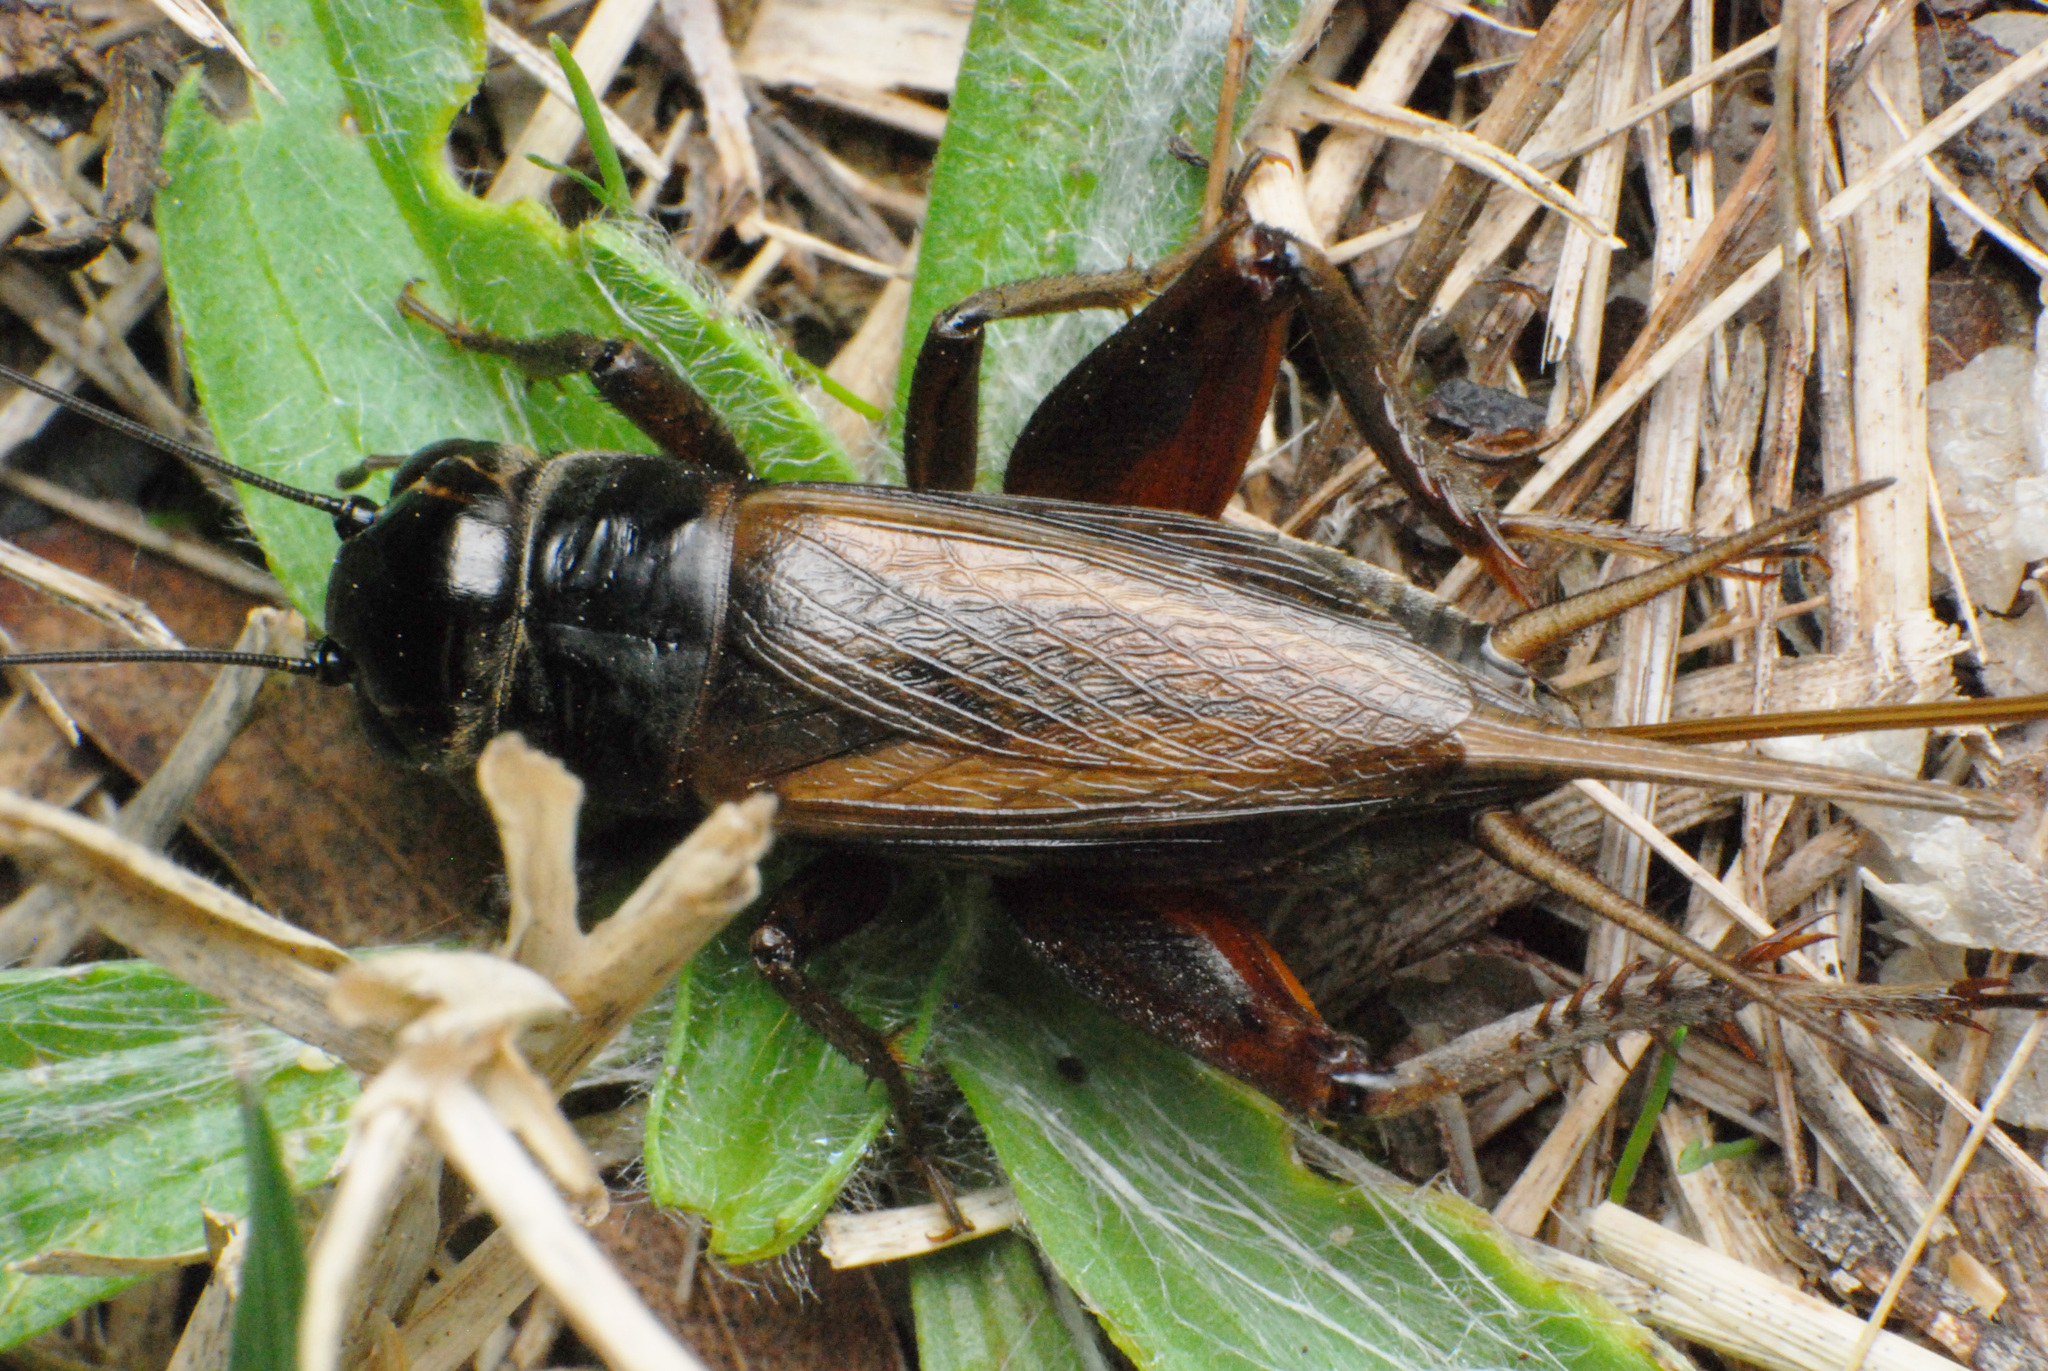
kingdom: Animalia
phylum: Arthropoda
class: Insecta
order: Orthoptera
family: Gryllidae
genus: Teleogryllus
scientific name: Teleogryllus commodus
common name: Black field cricket
